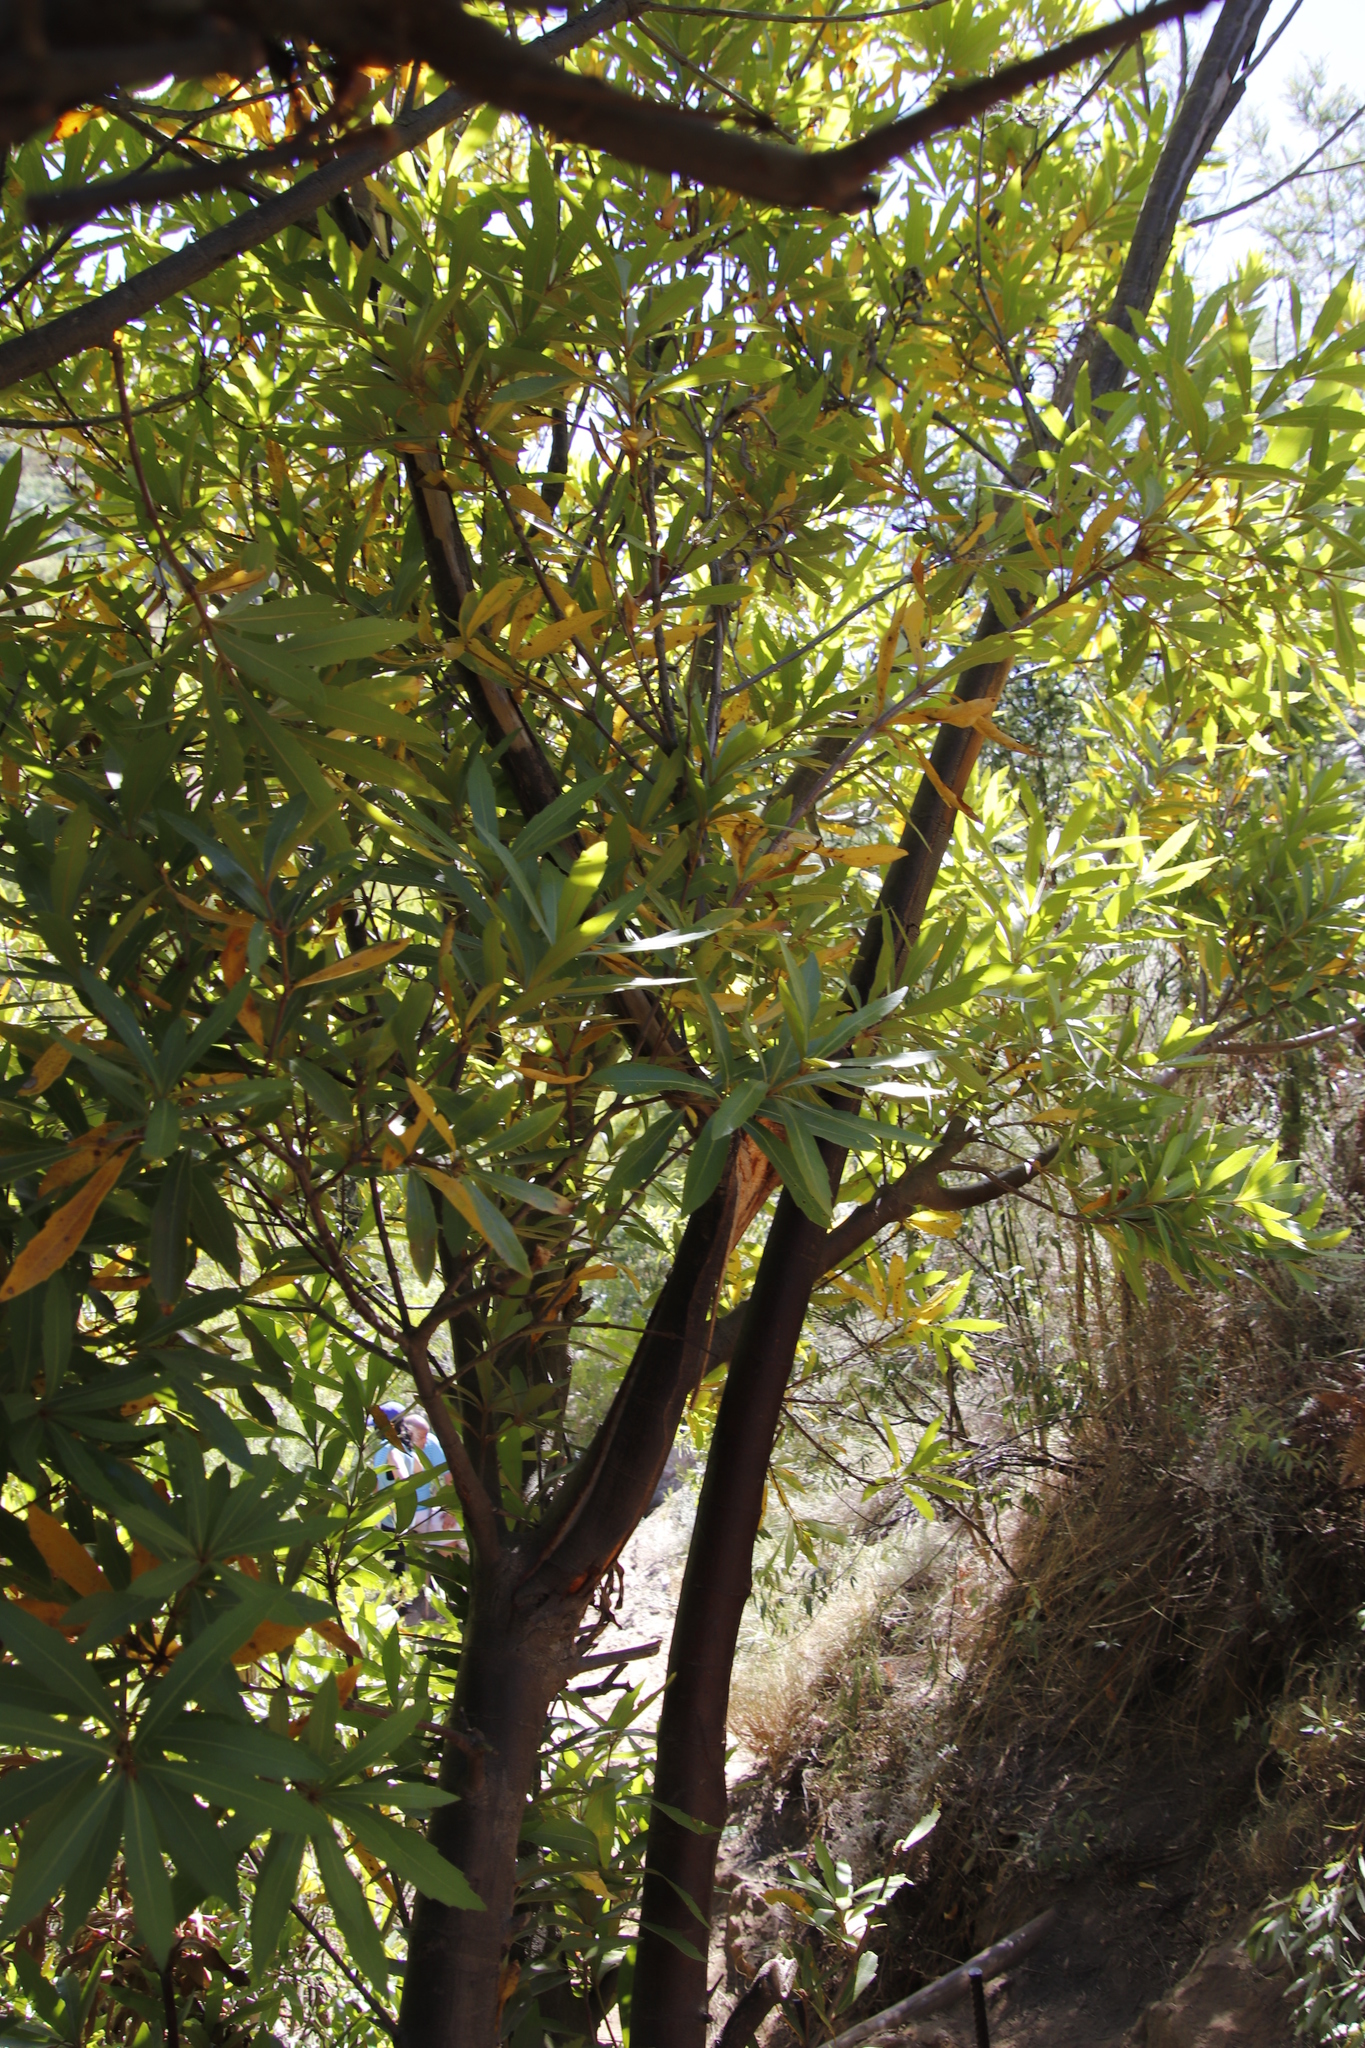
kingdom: Plantae
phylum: Tracheophyta
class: Magnoliopsida
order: Proteales
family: Proteaceae
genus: Brabejum
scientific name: Brabejum stellatifolium
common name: Wild almond
